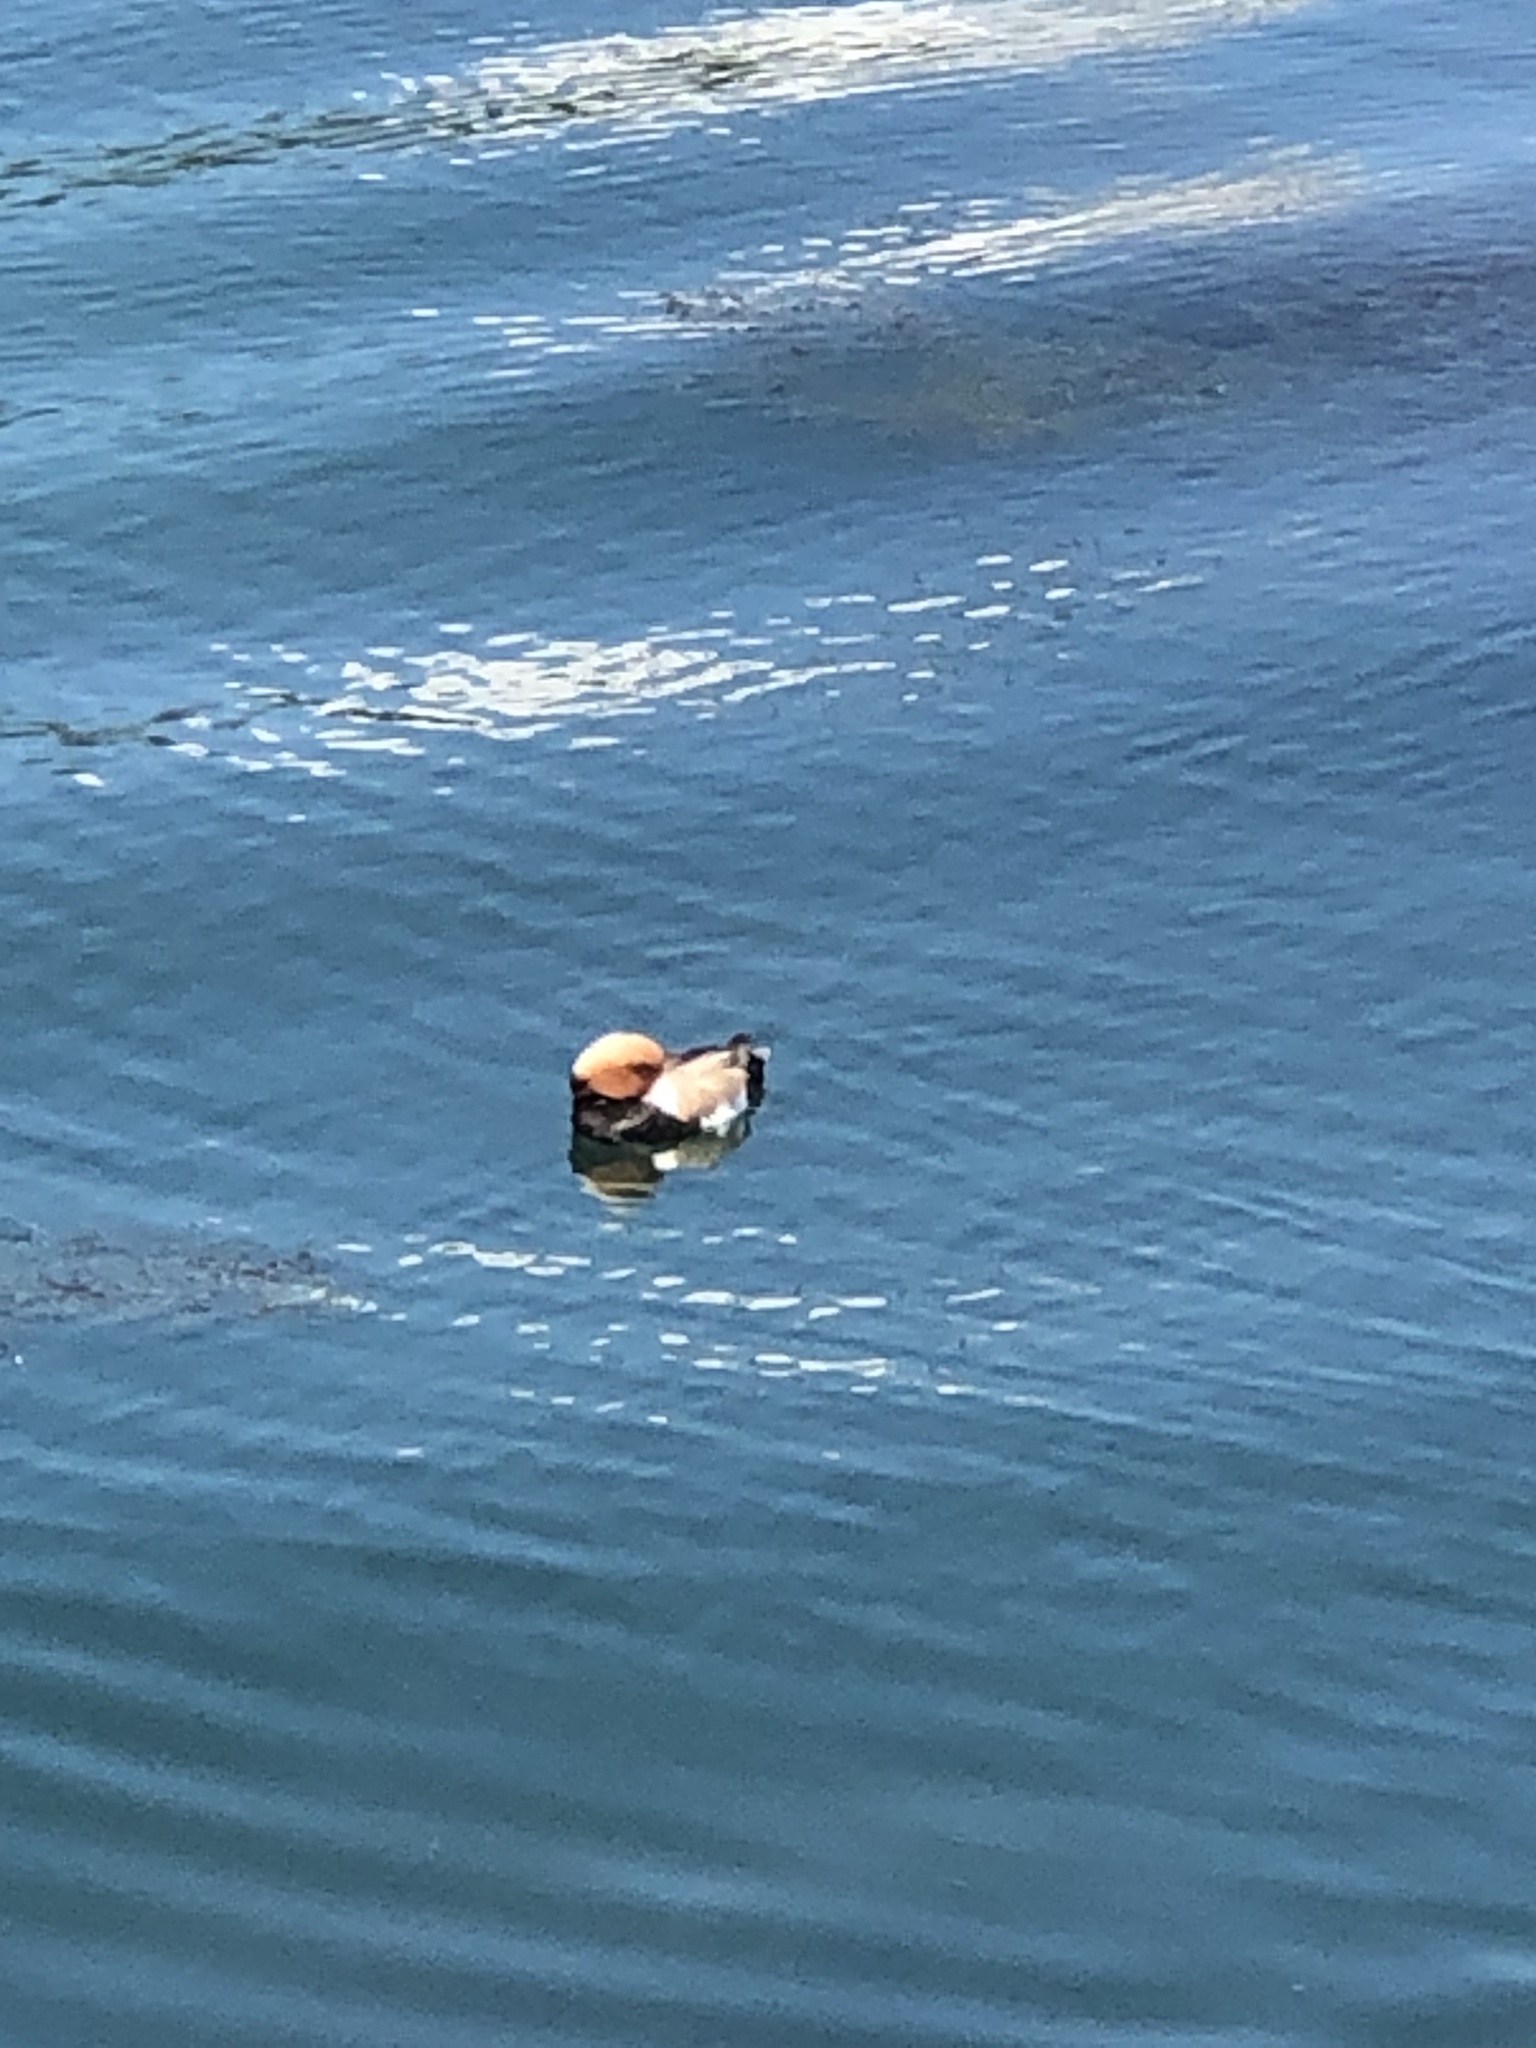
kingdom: Animalia
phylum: Chordata
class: Aves
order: Anseriformes
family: Anatidae
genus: Netta
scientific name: Netta rufina
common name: Red-crested pochard
